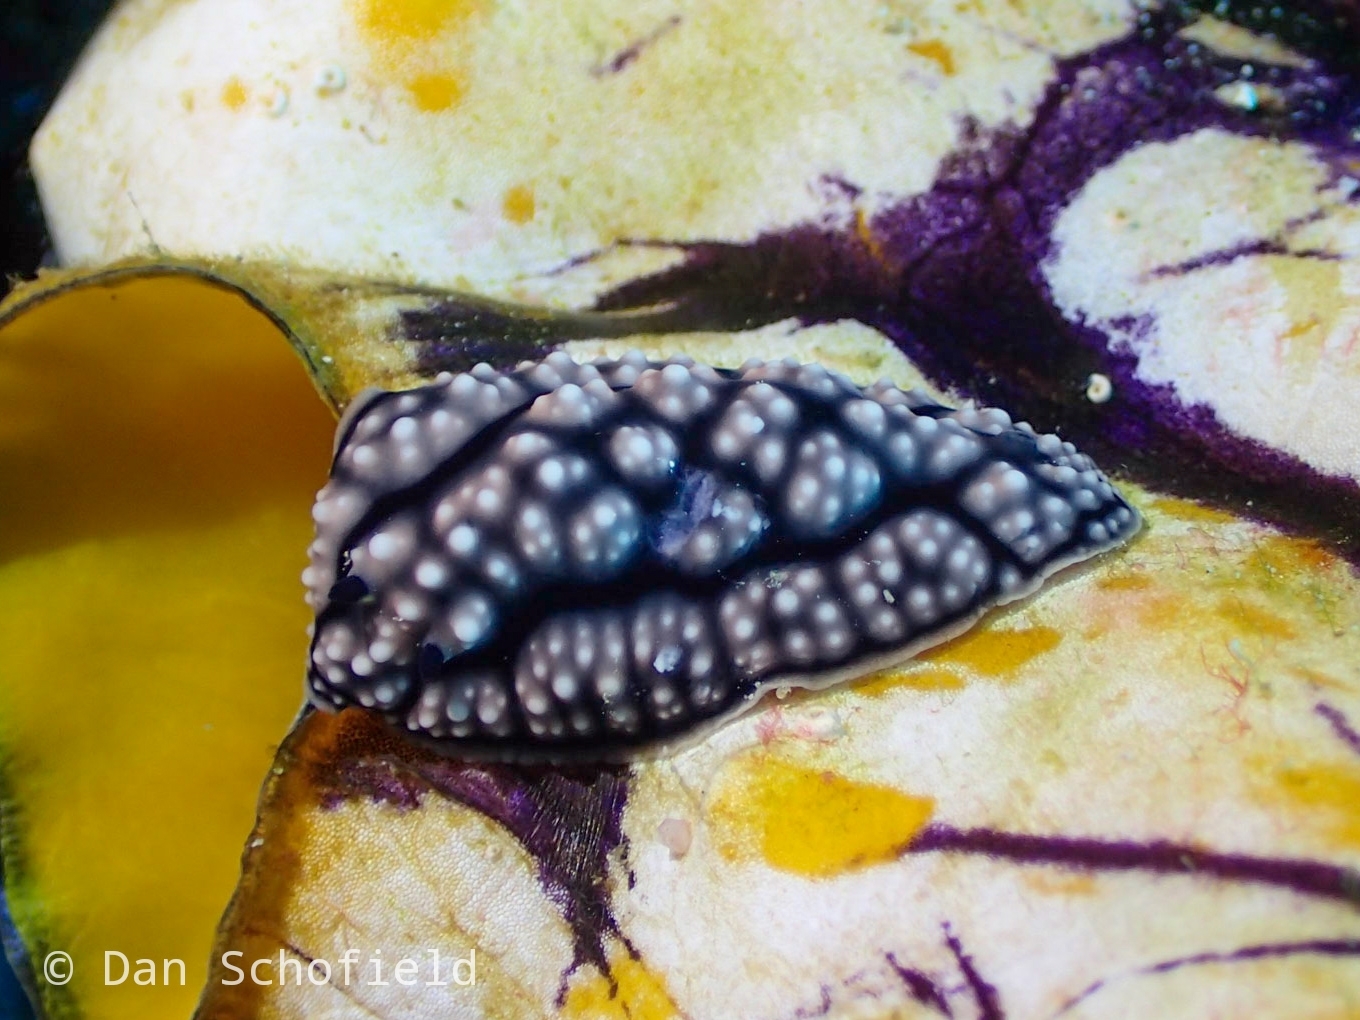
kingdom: Animalia
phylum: Mollusca
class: Gastropoda
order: Nudibranchia
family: Phyllidiidae
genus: Phyllidiella
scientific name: Phyllidiella pustulosa
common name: Pustular phyllidia
